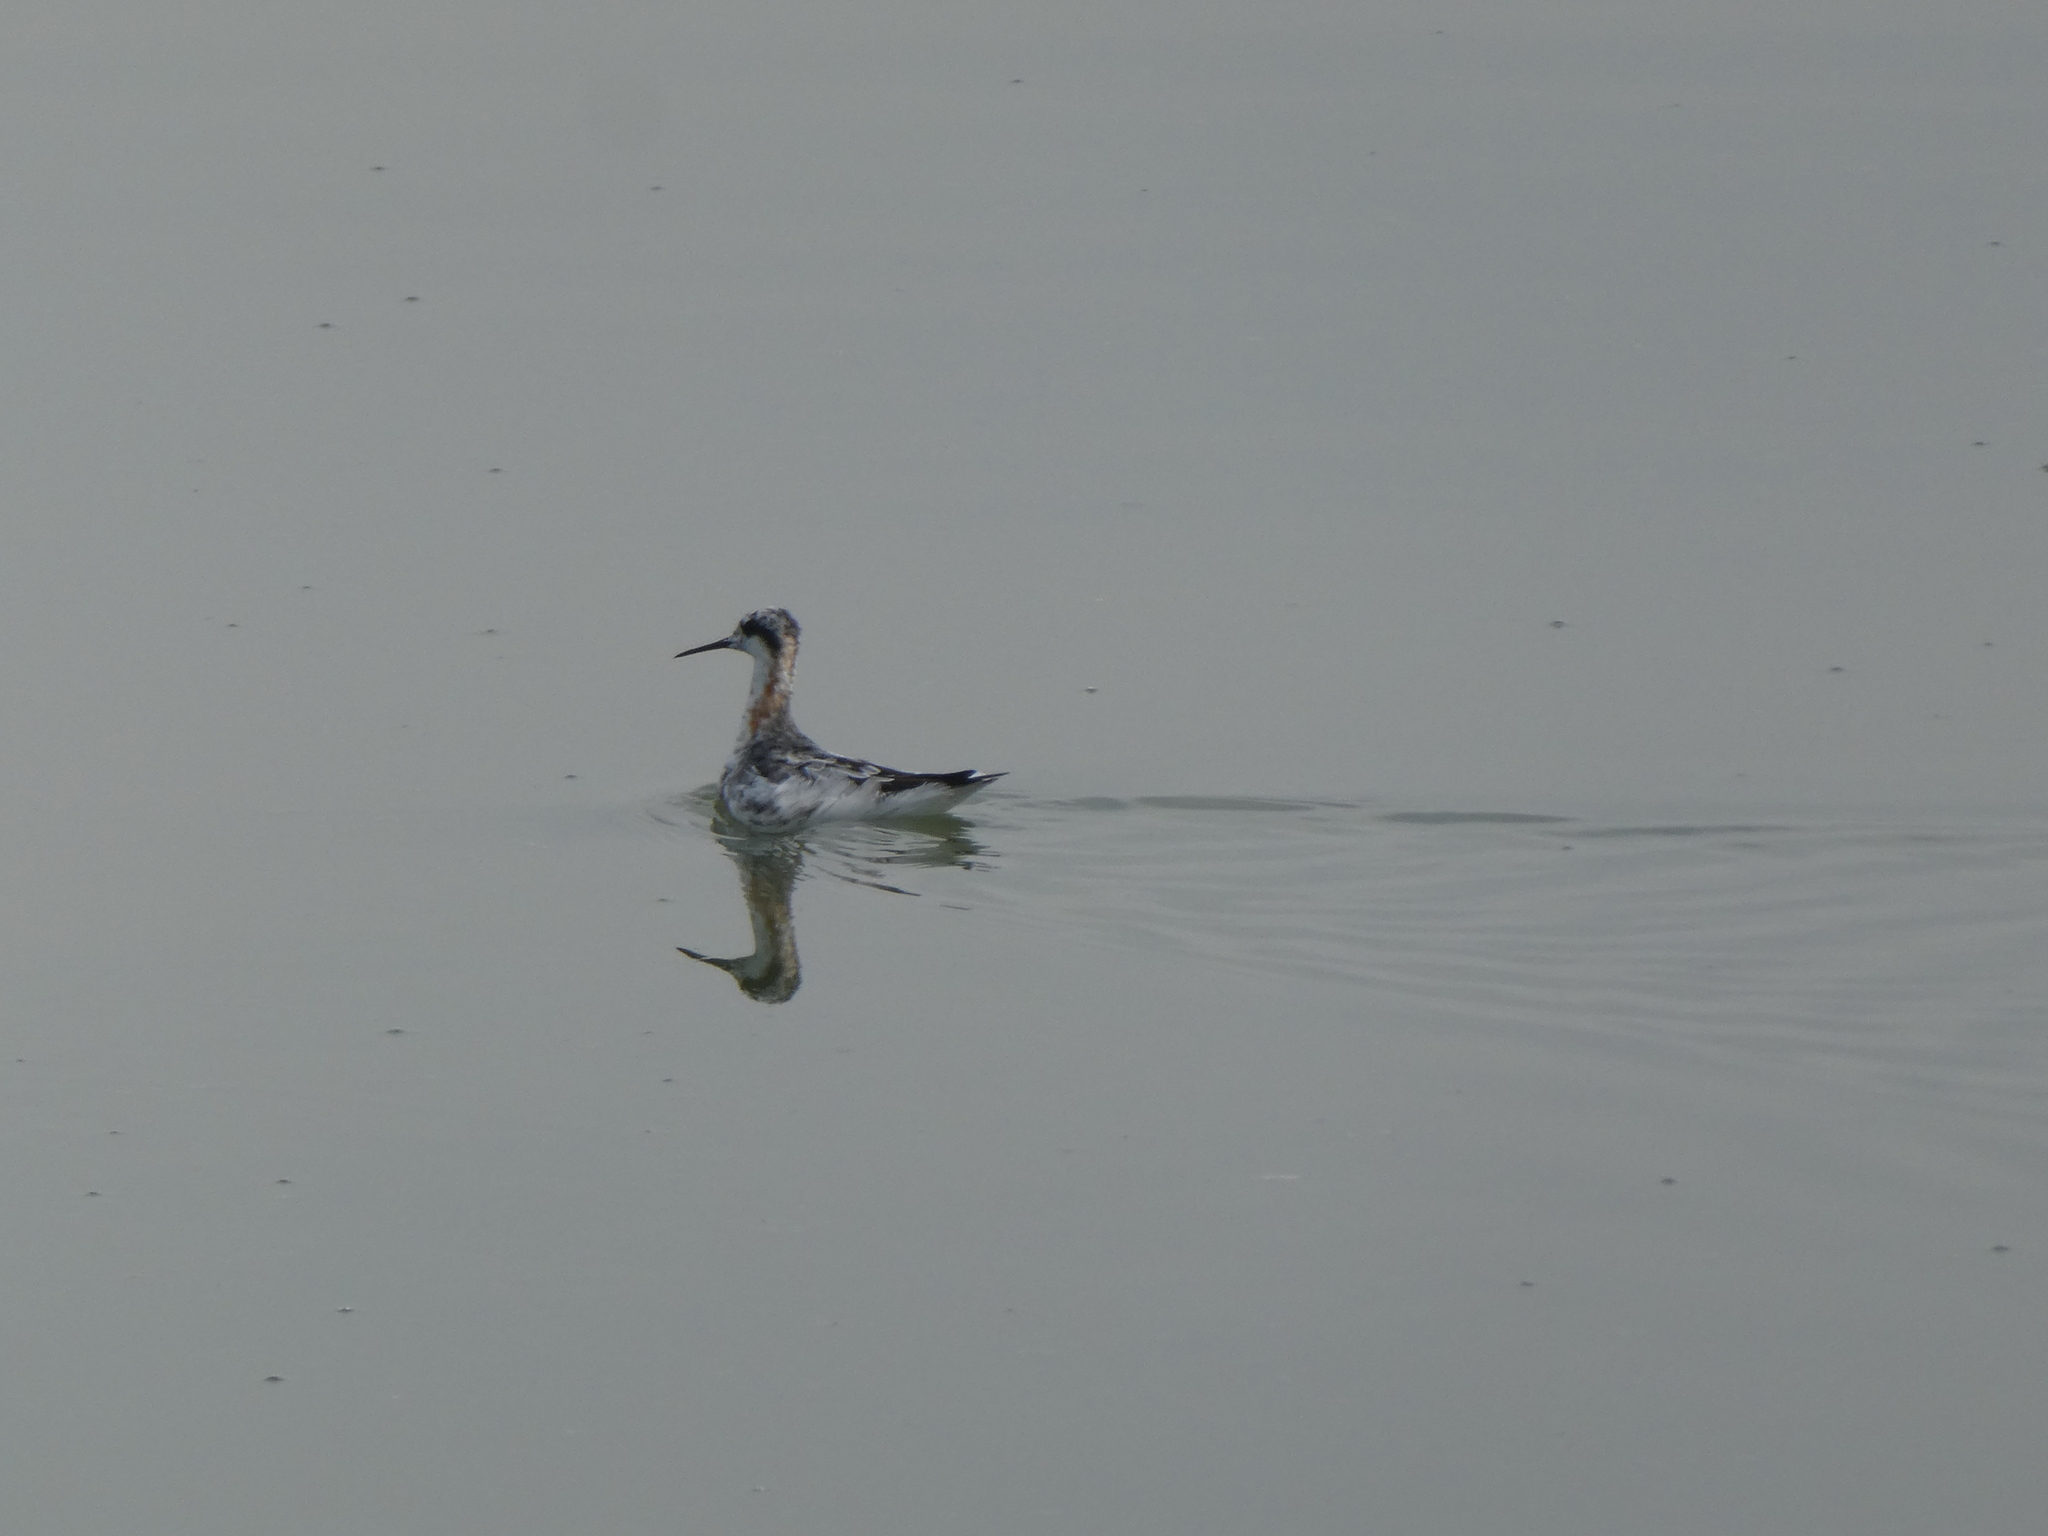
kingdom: Animalia
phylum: Chordata
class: Aves
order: Charadriiformes
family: Scolopacidae
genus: Phalaropus
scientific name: Phalaropus tricolor
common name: Wilson's phalarope
